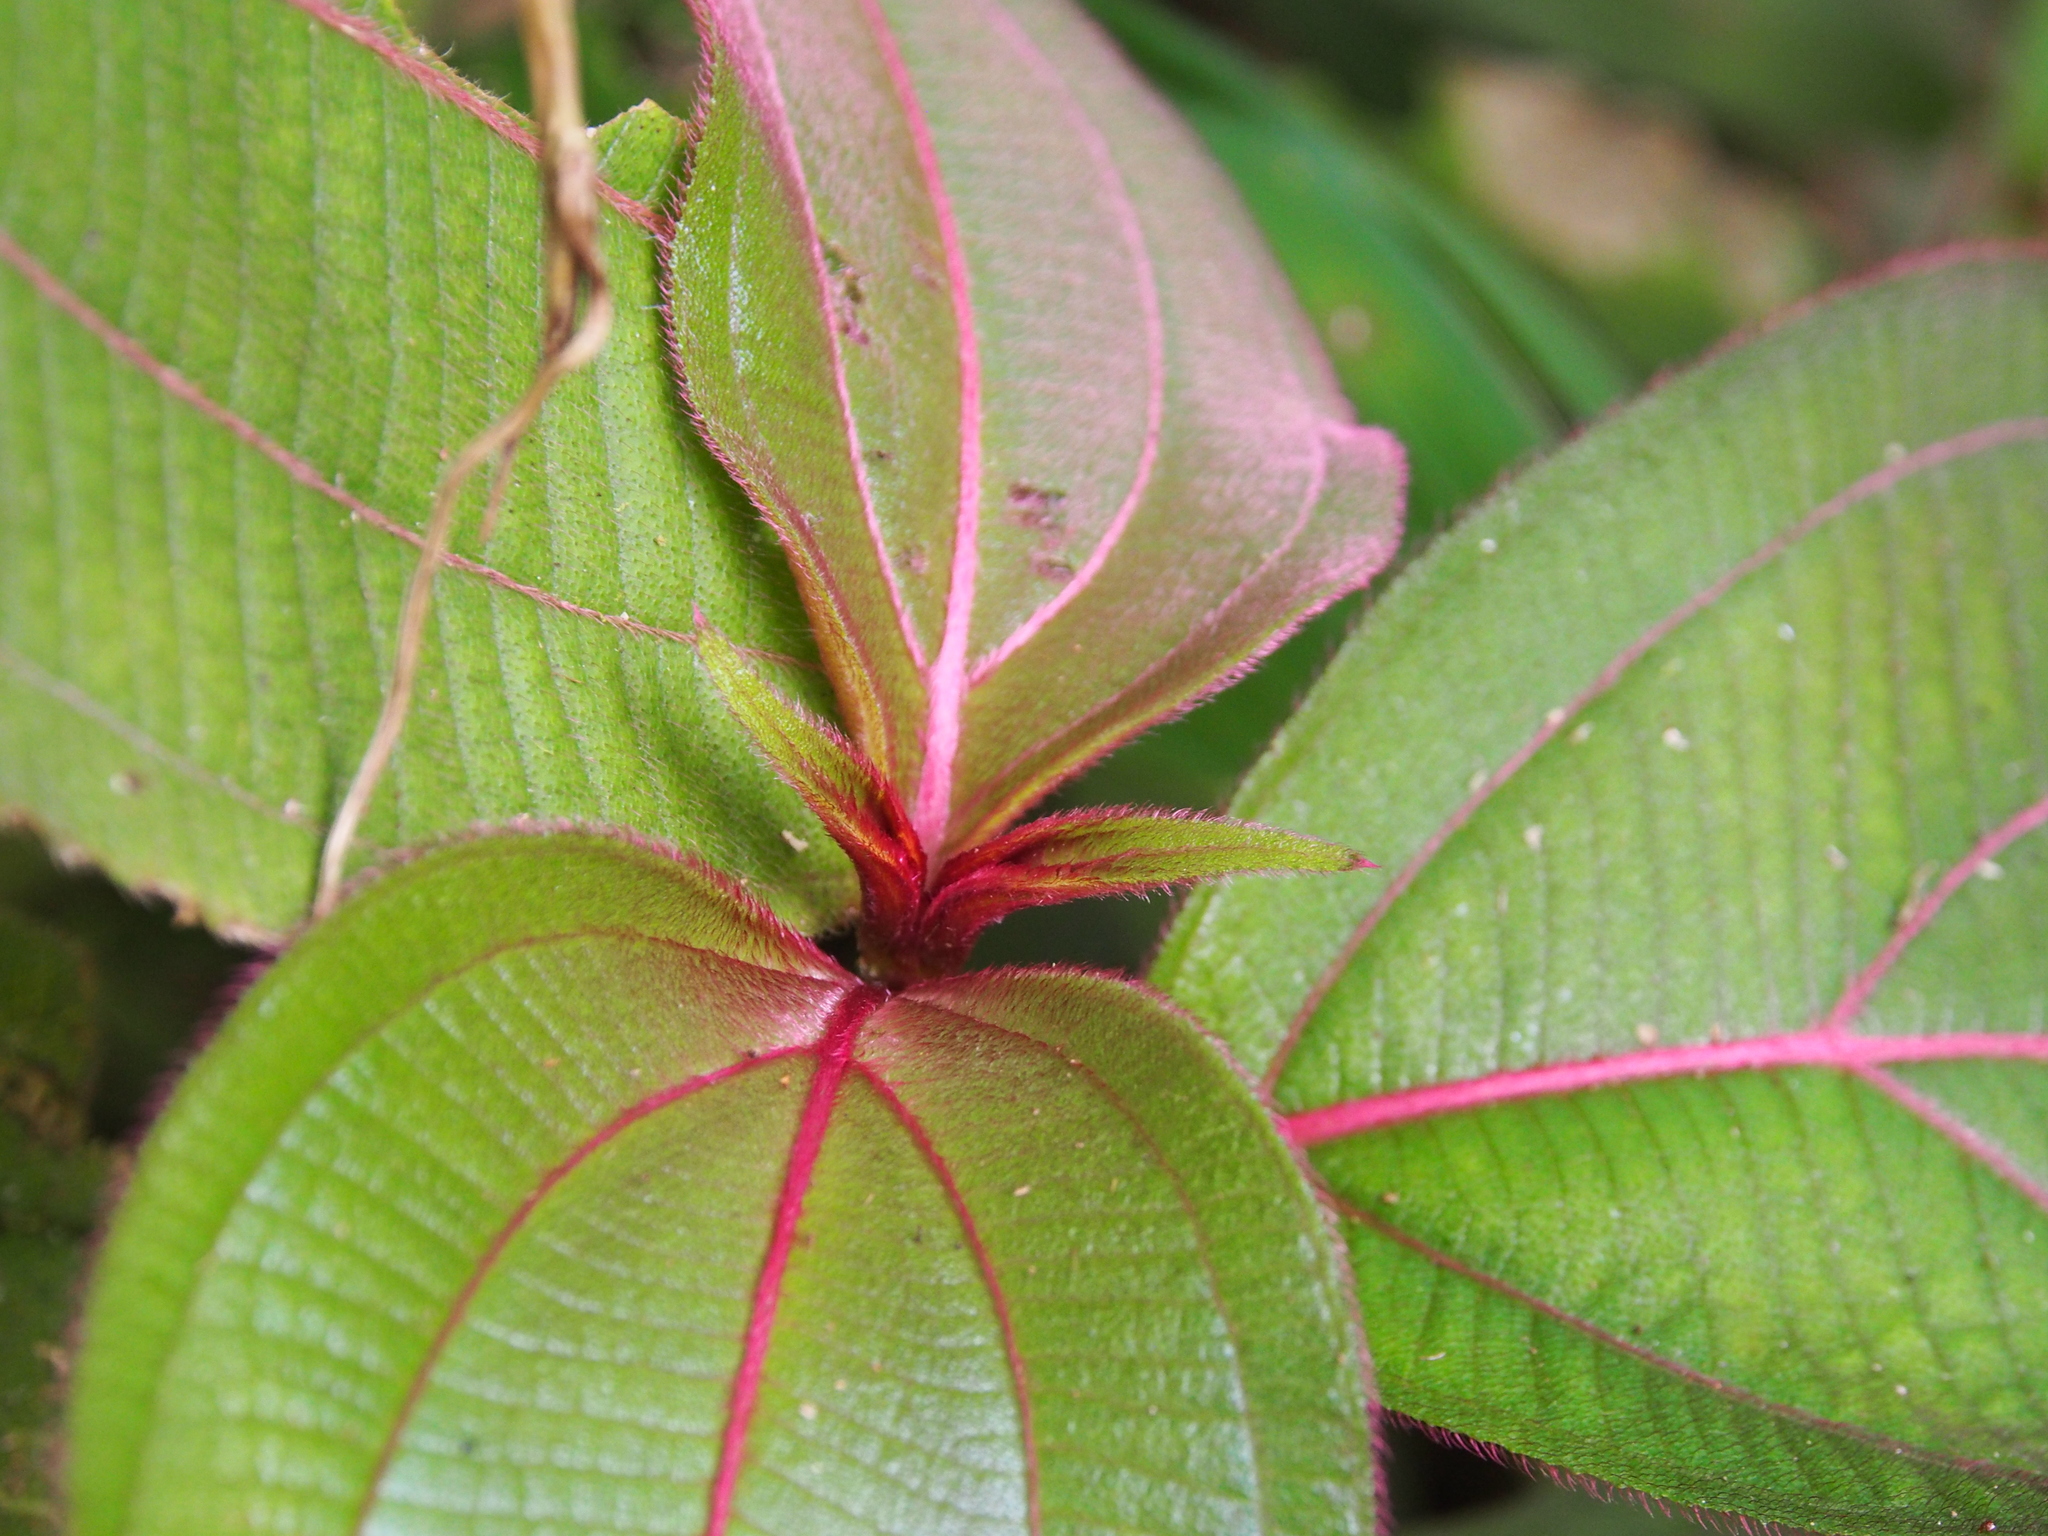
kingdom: Plantae
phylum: Tracheophyta
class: Magnoliopsida
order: Myrtales
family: Melastomataceae
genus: Miconia
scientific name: Miconia nervosa
